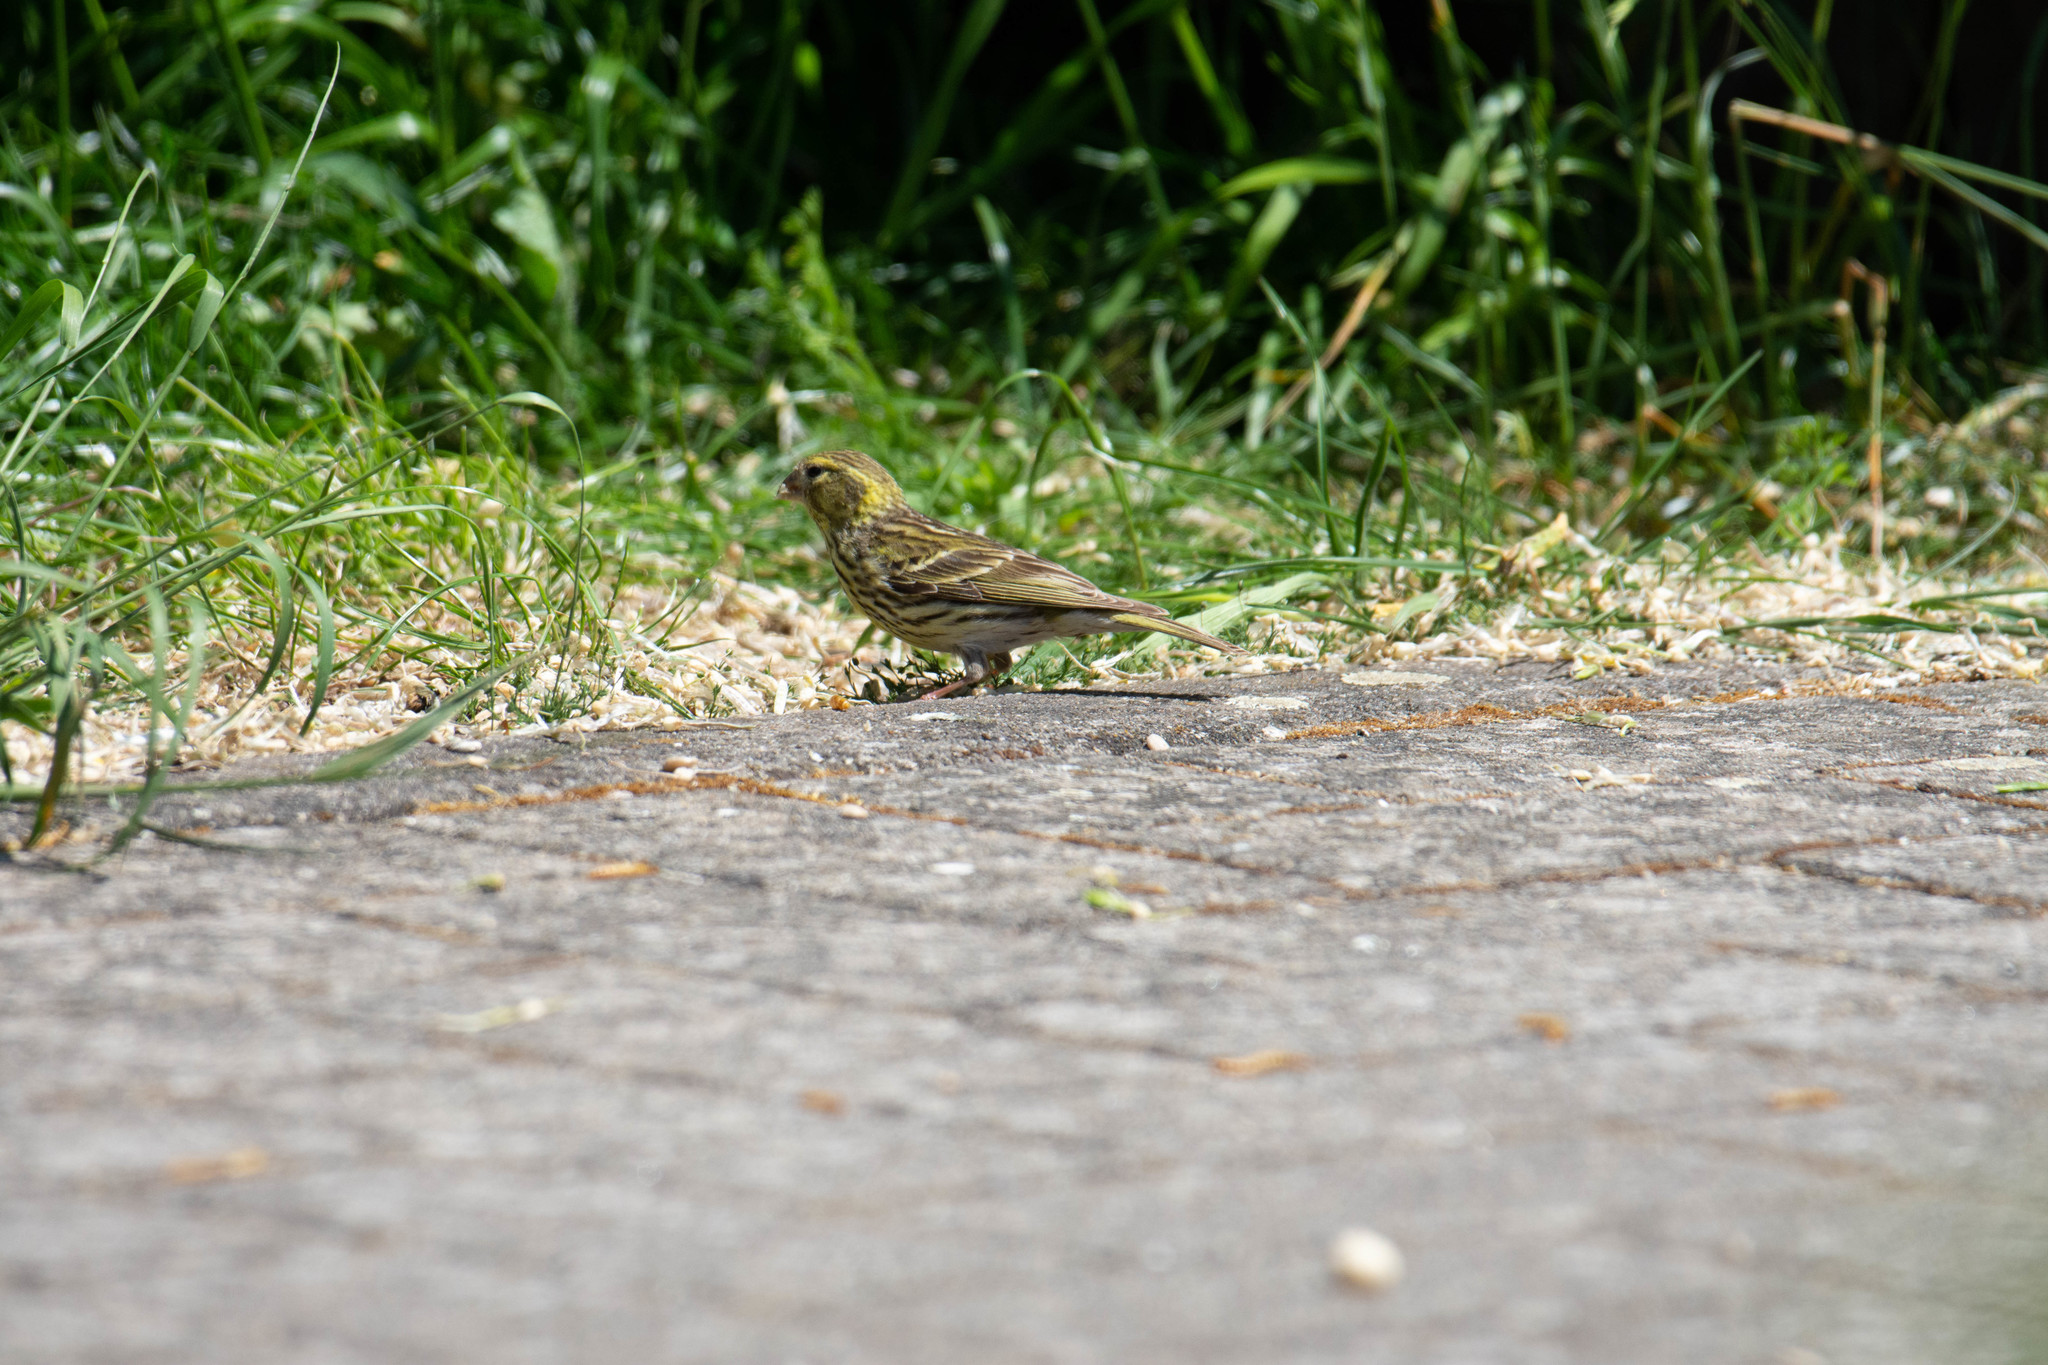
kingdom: Animalia
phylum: Chordata
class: Aves
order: Passeriformes
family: Fringillidae
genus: Serinus
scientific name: Serinus serinus
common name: European serin
